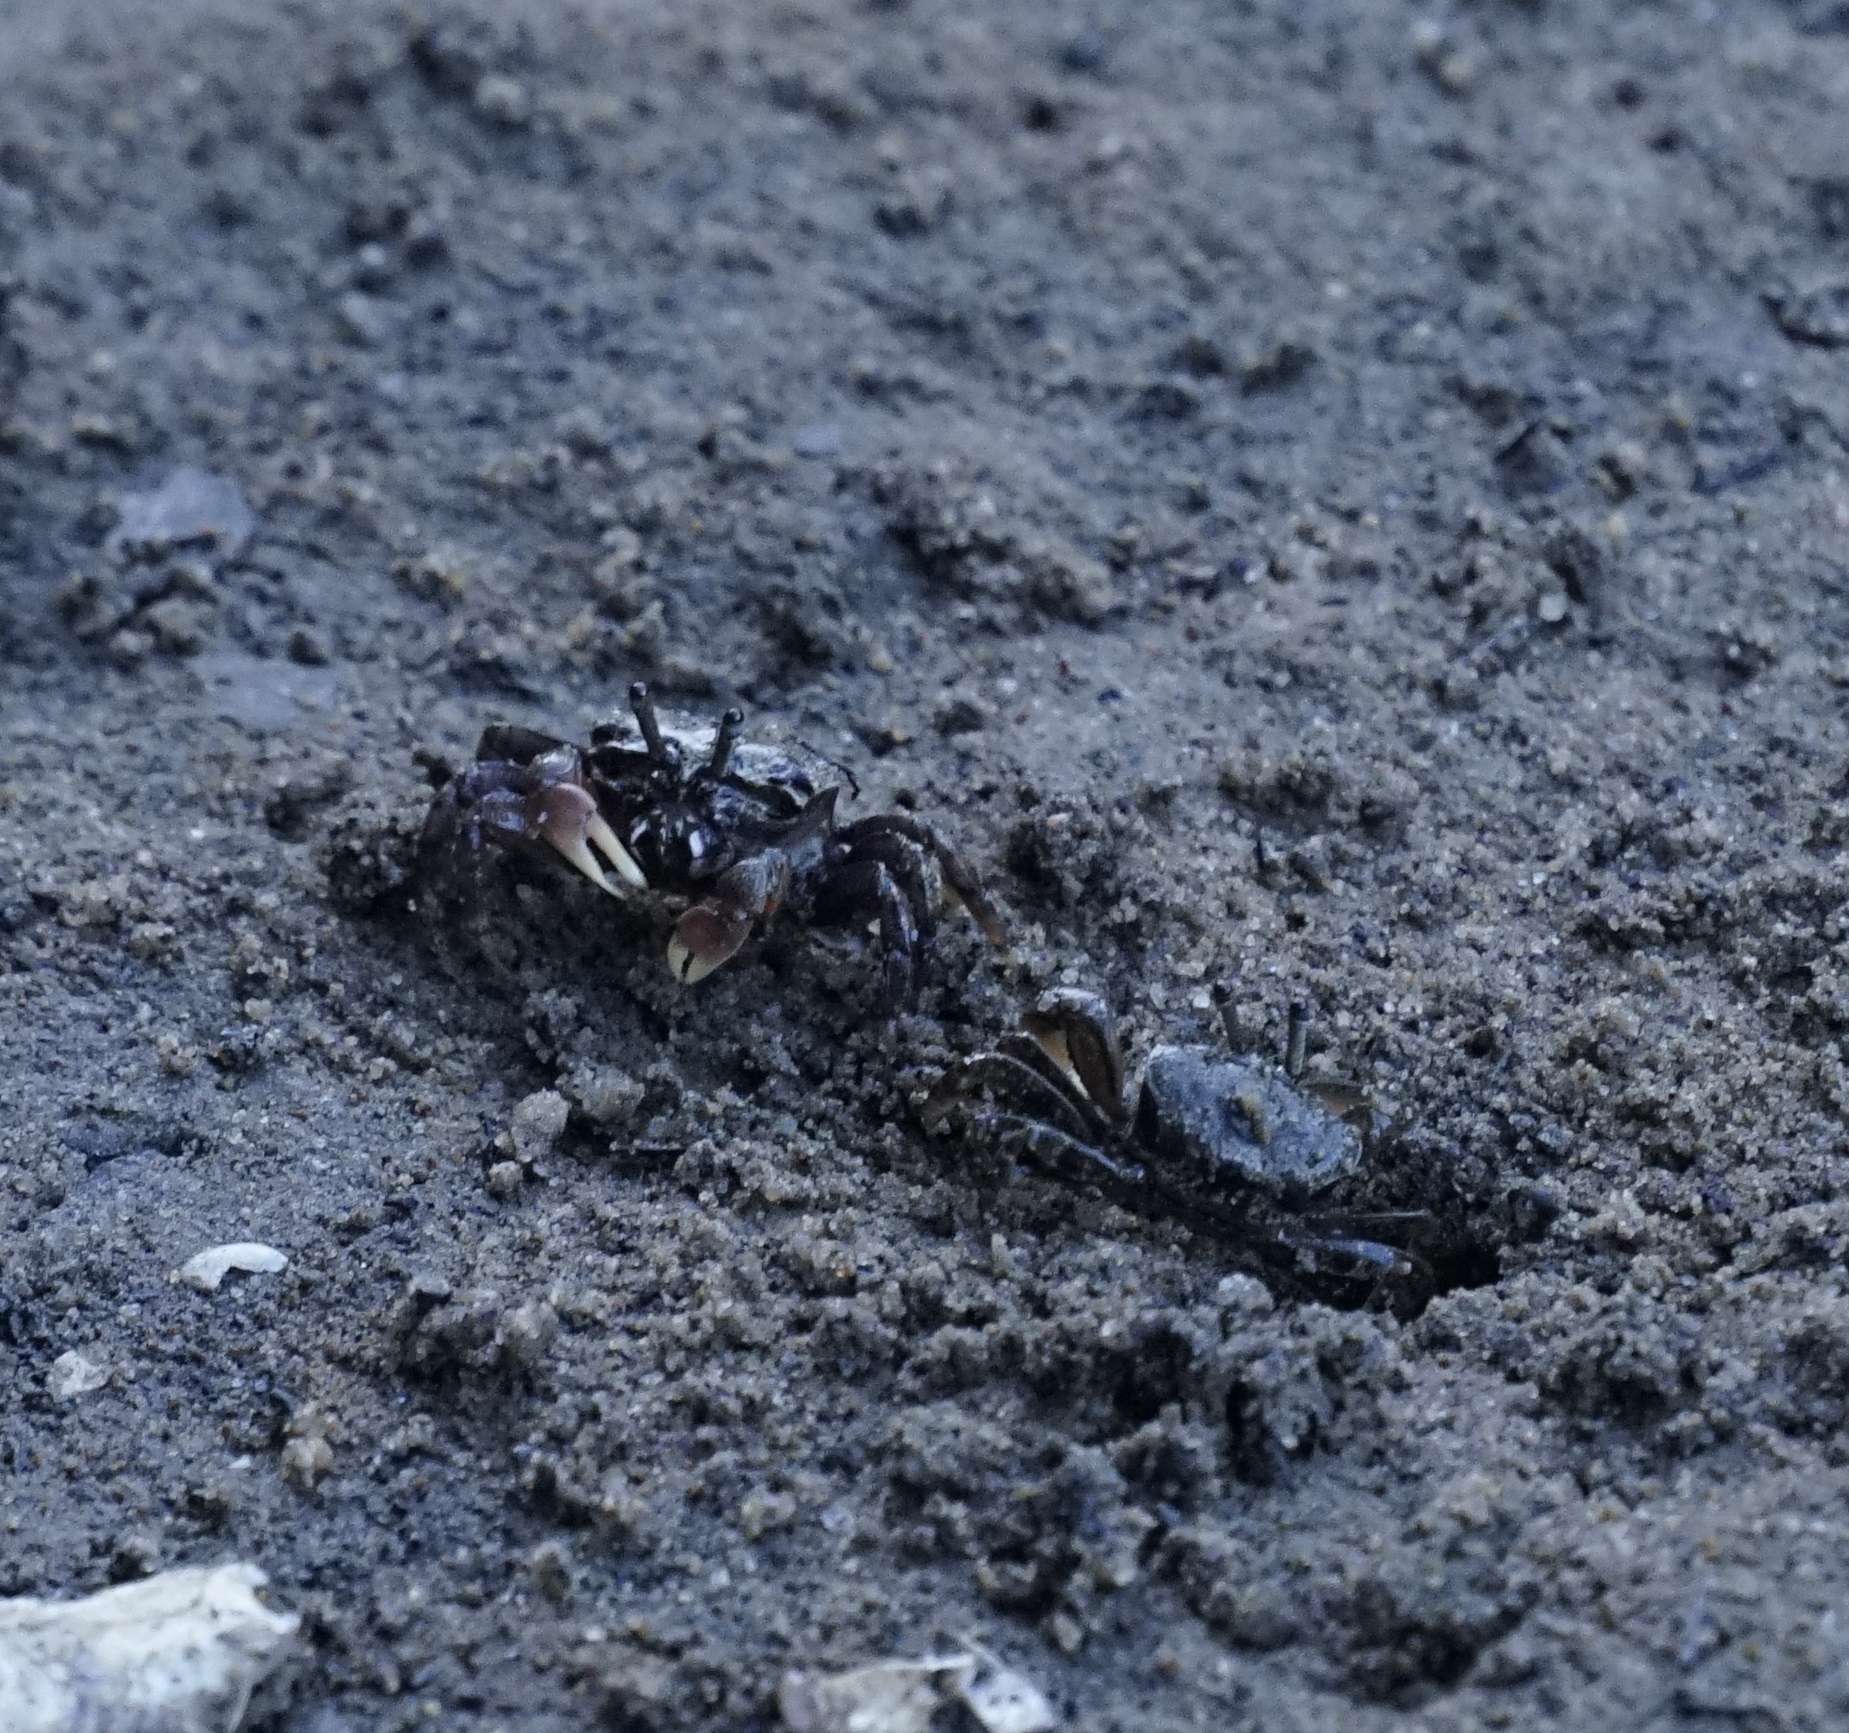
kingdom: Animalia
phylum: Arthropoda
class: Malacostraca
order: Decapoda
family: Heloeciidae
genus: Heloecius
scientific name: Heloecius cordiformis
